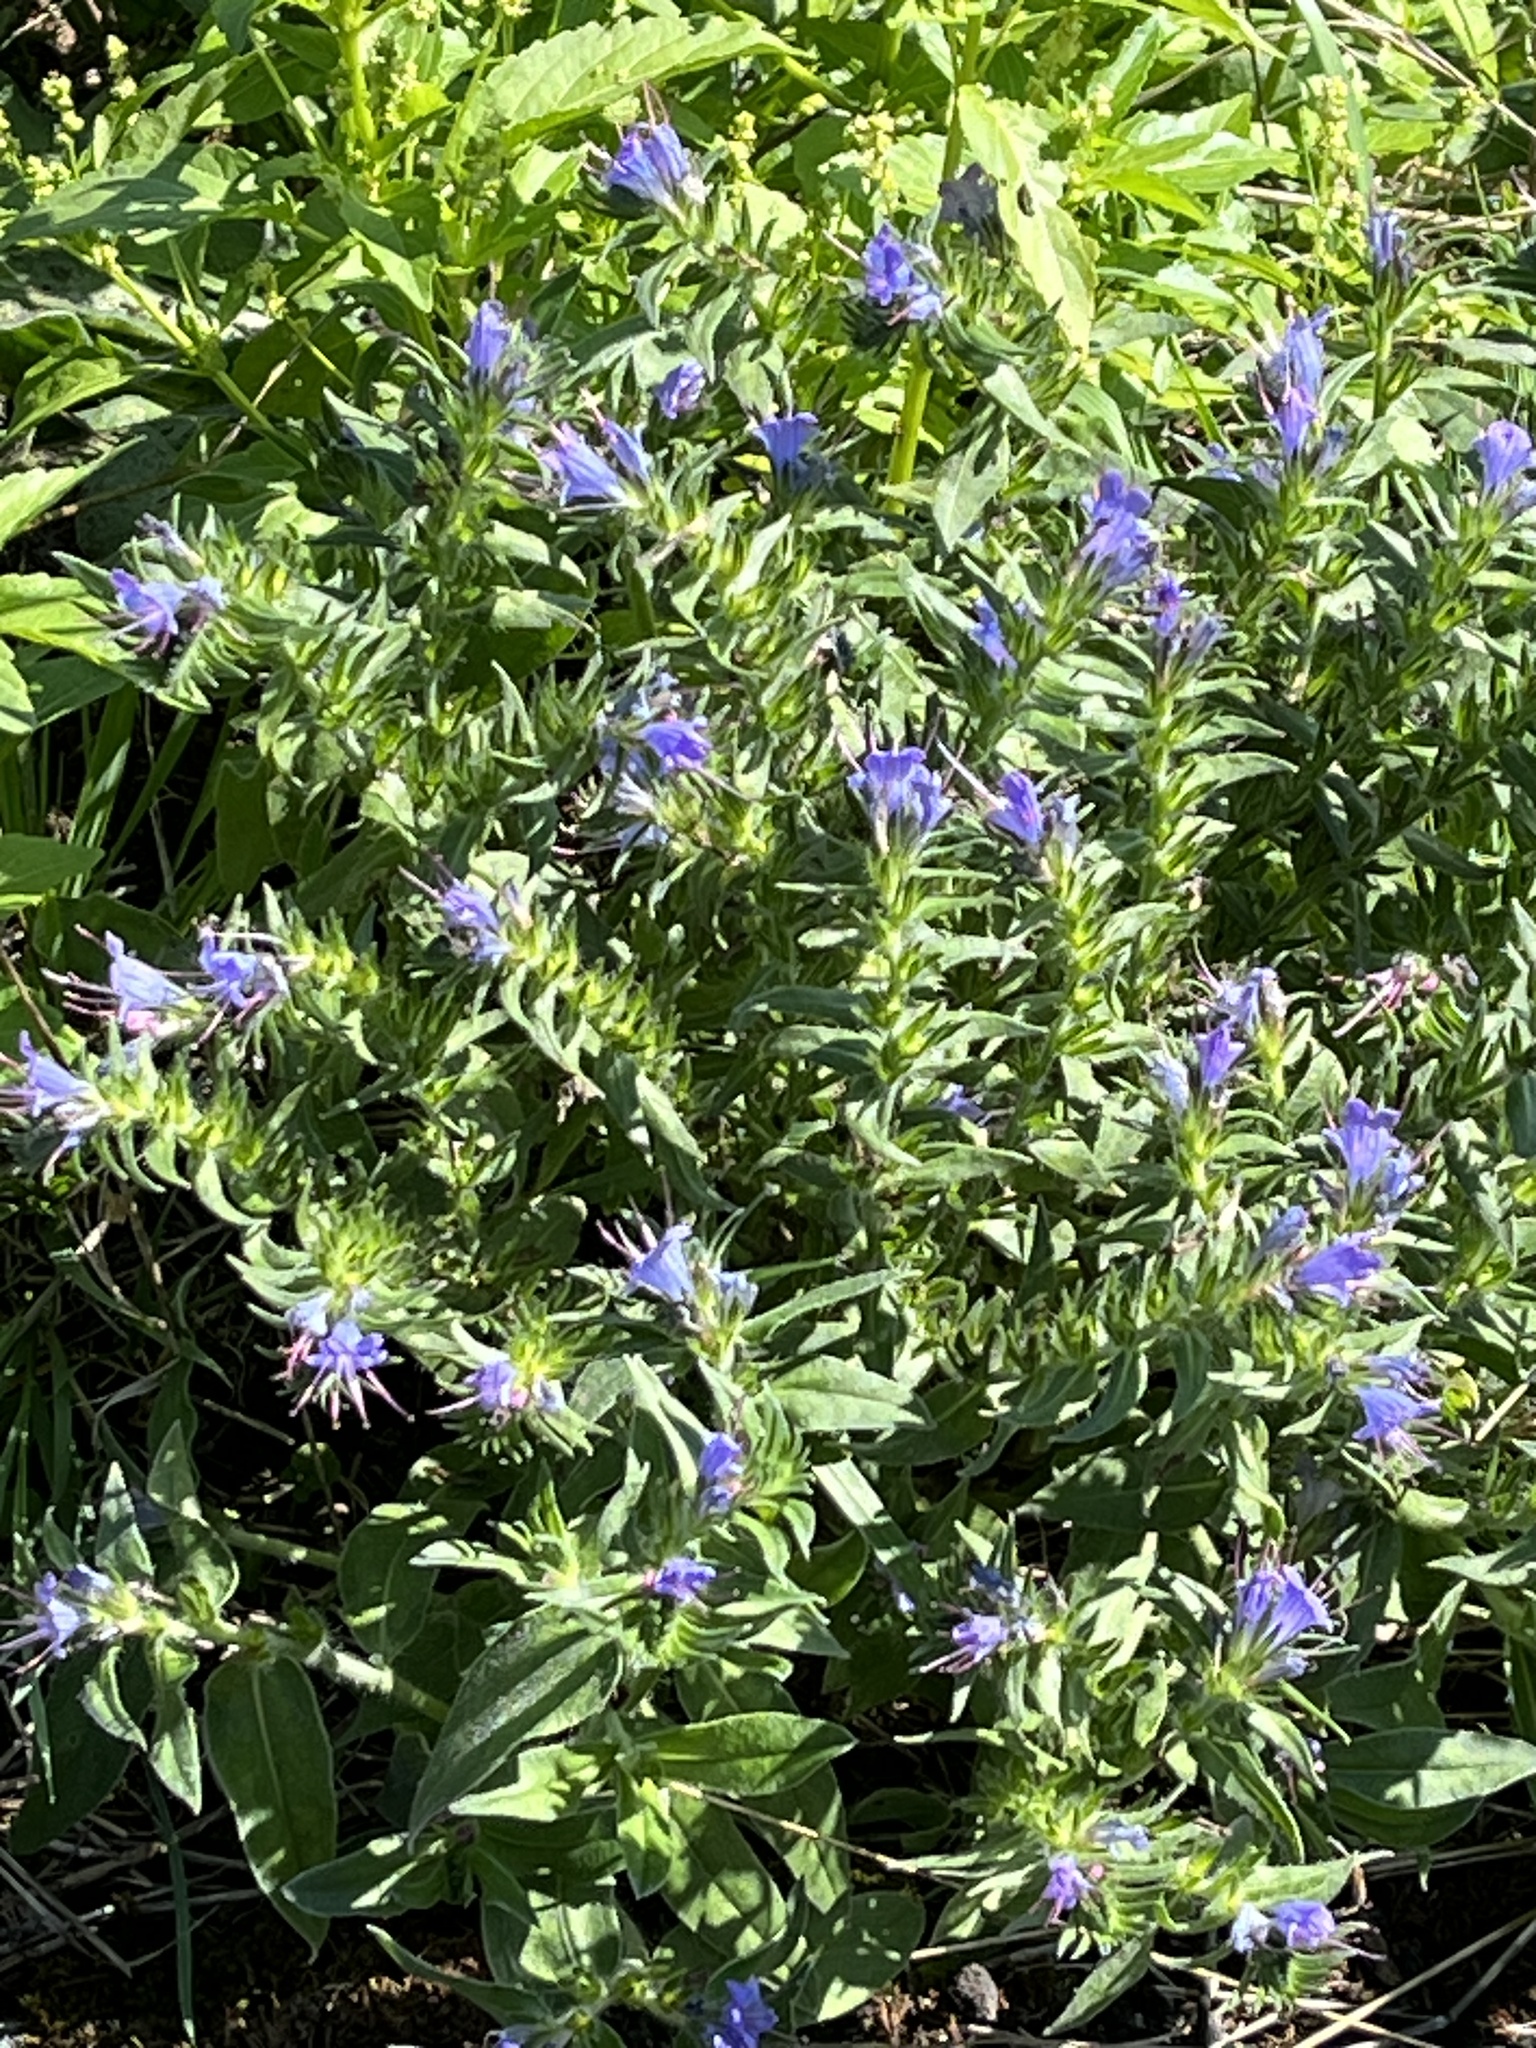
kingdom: Plantae
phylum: Tracheophyta
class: Magnoliopsida
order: Boraginales
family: Boraginaceae
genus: Echium
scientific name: Echium vulgare
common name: Common viper's bugloss
